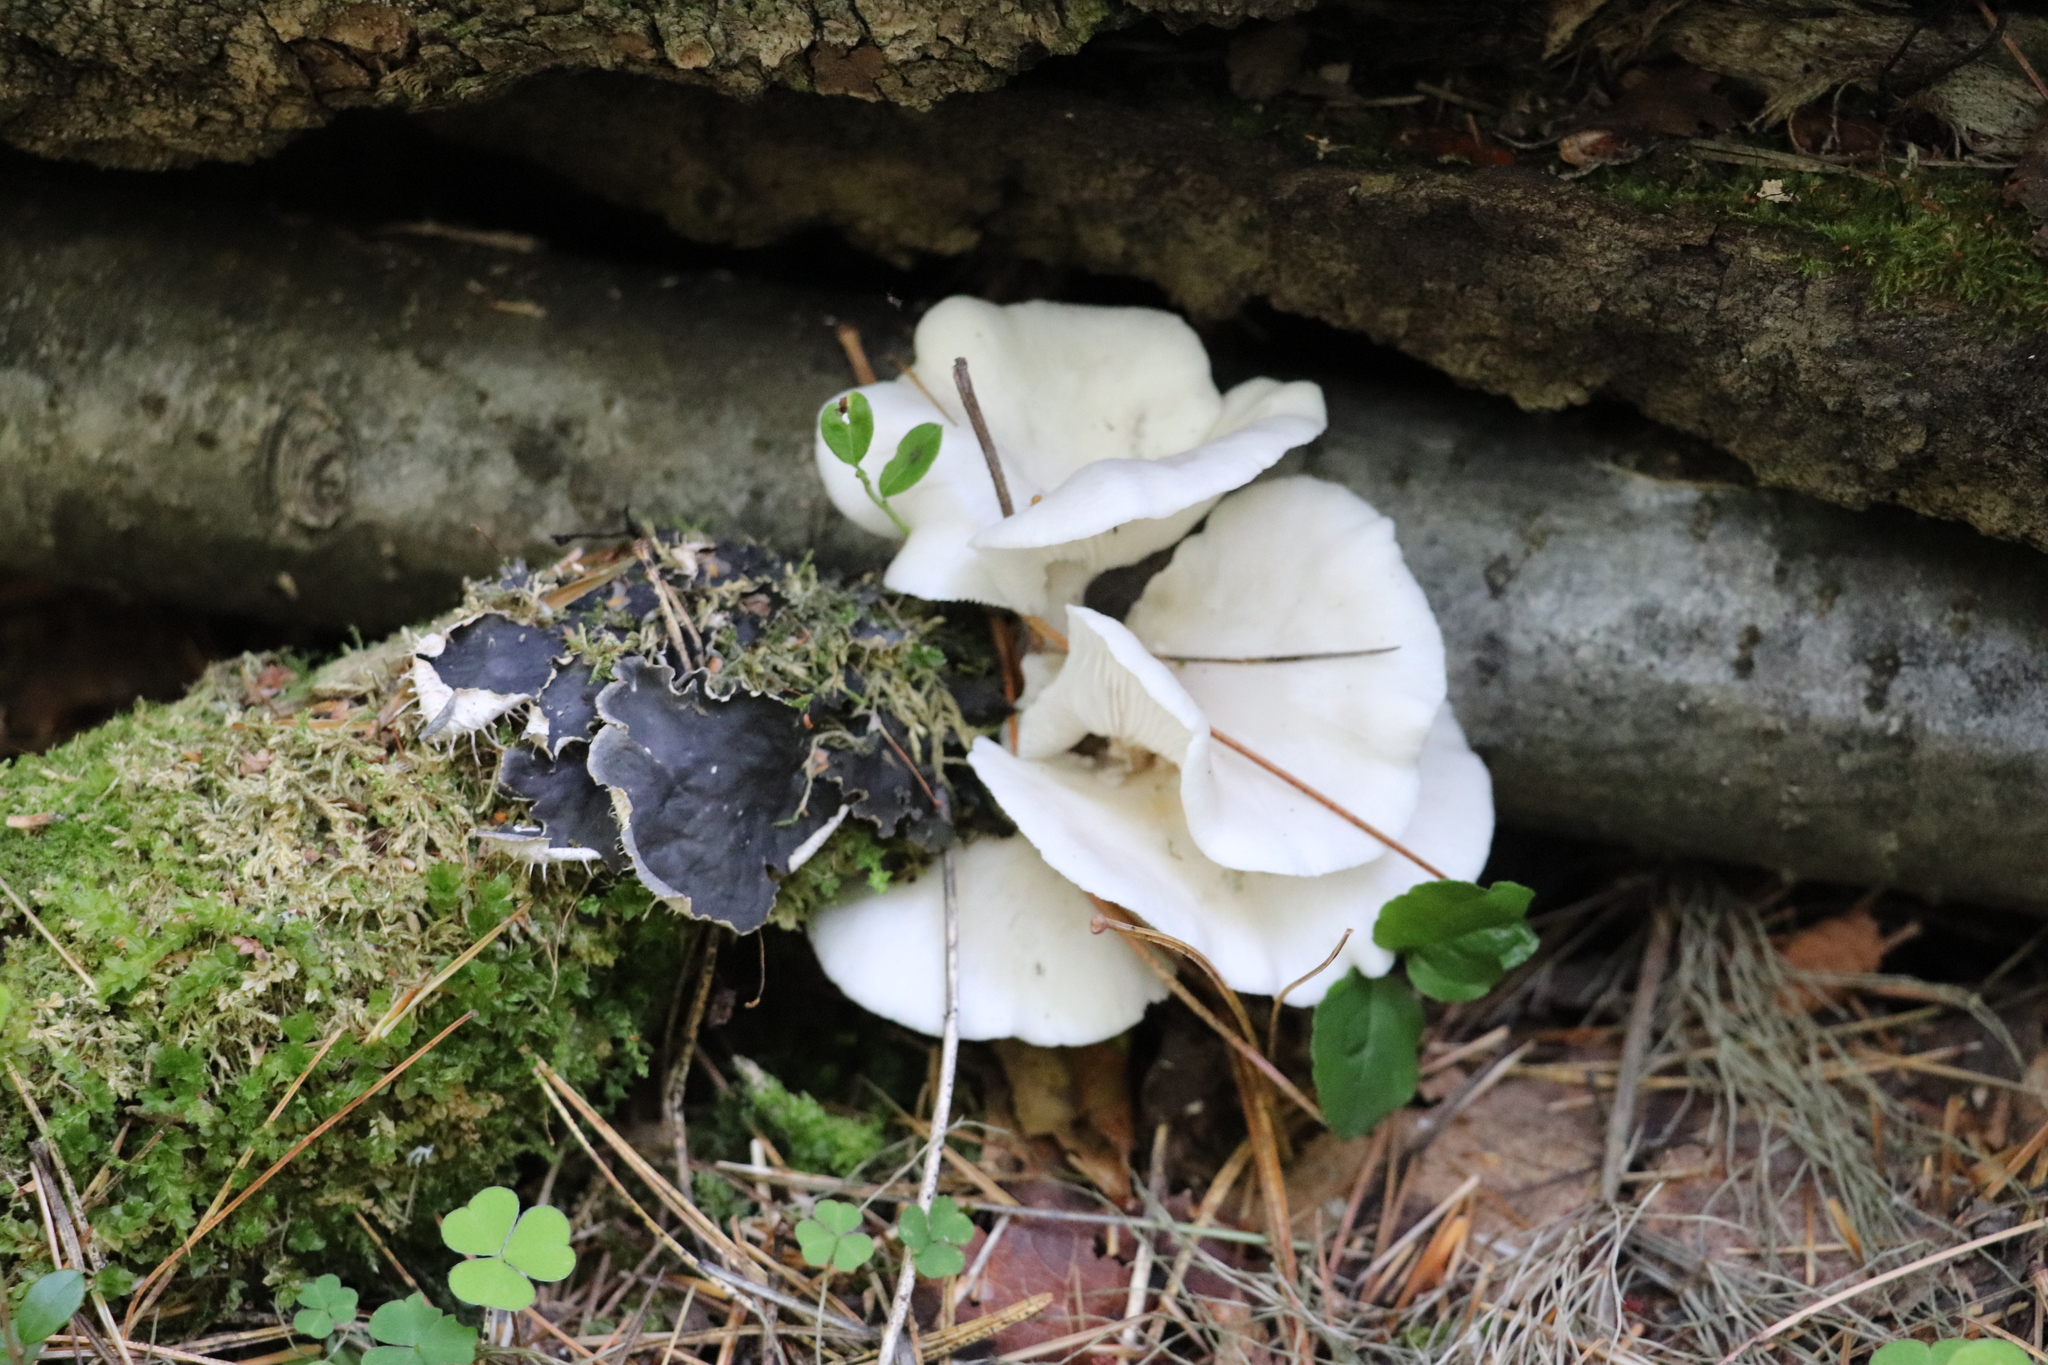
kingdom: Fungi
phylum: Basidiomycota
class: Agaricomycetes
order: Agaricales
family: Pleurotaceae
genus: Pleurotus
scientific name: Pleurotus pulmonarius
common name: Pale oyster
